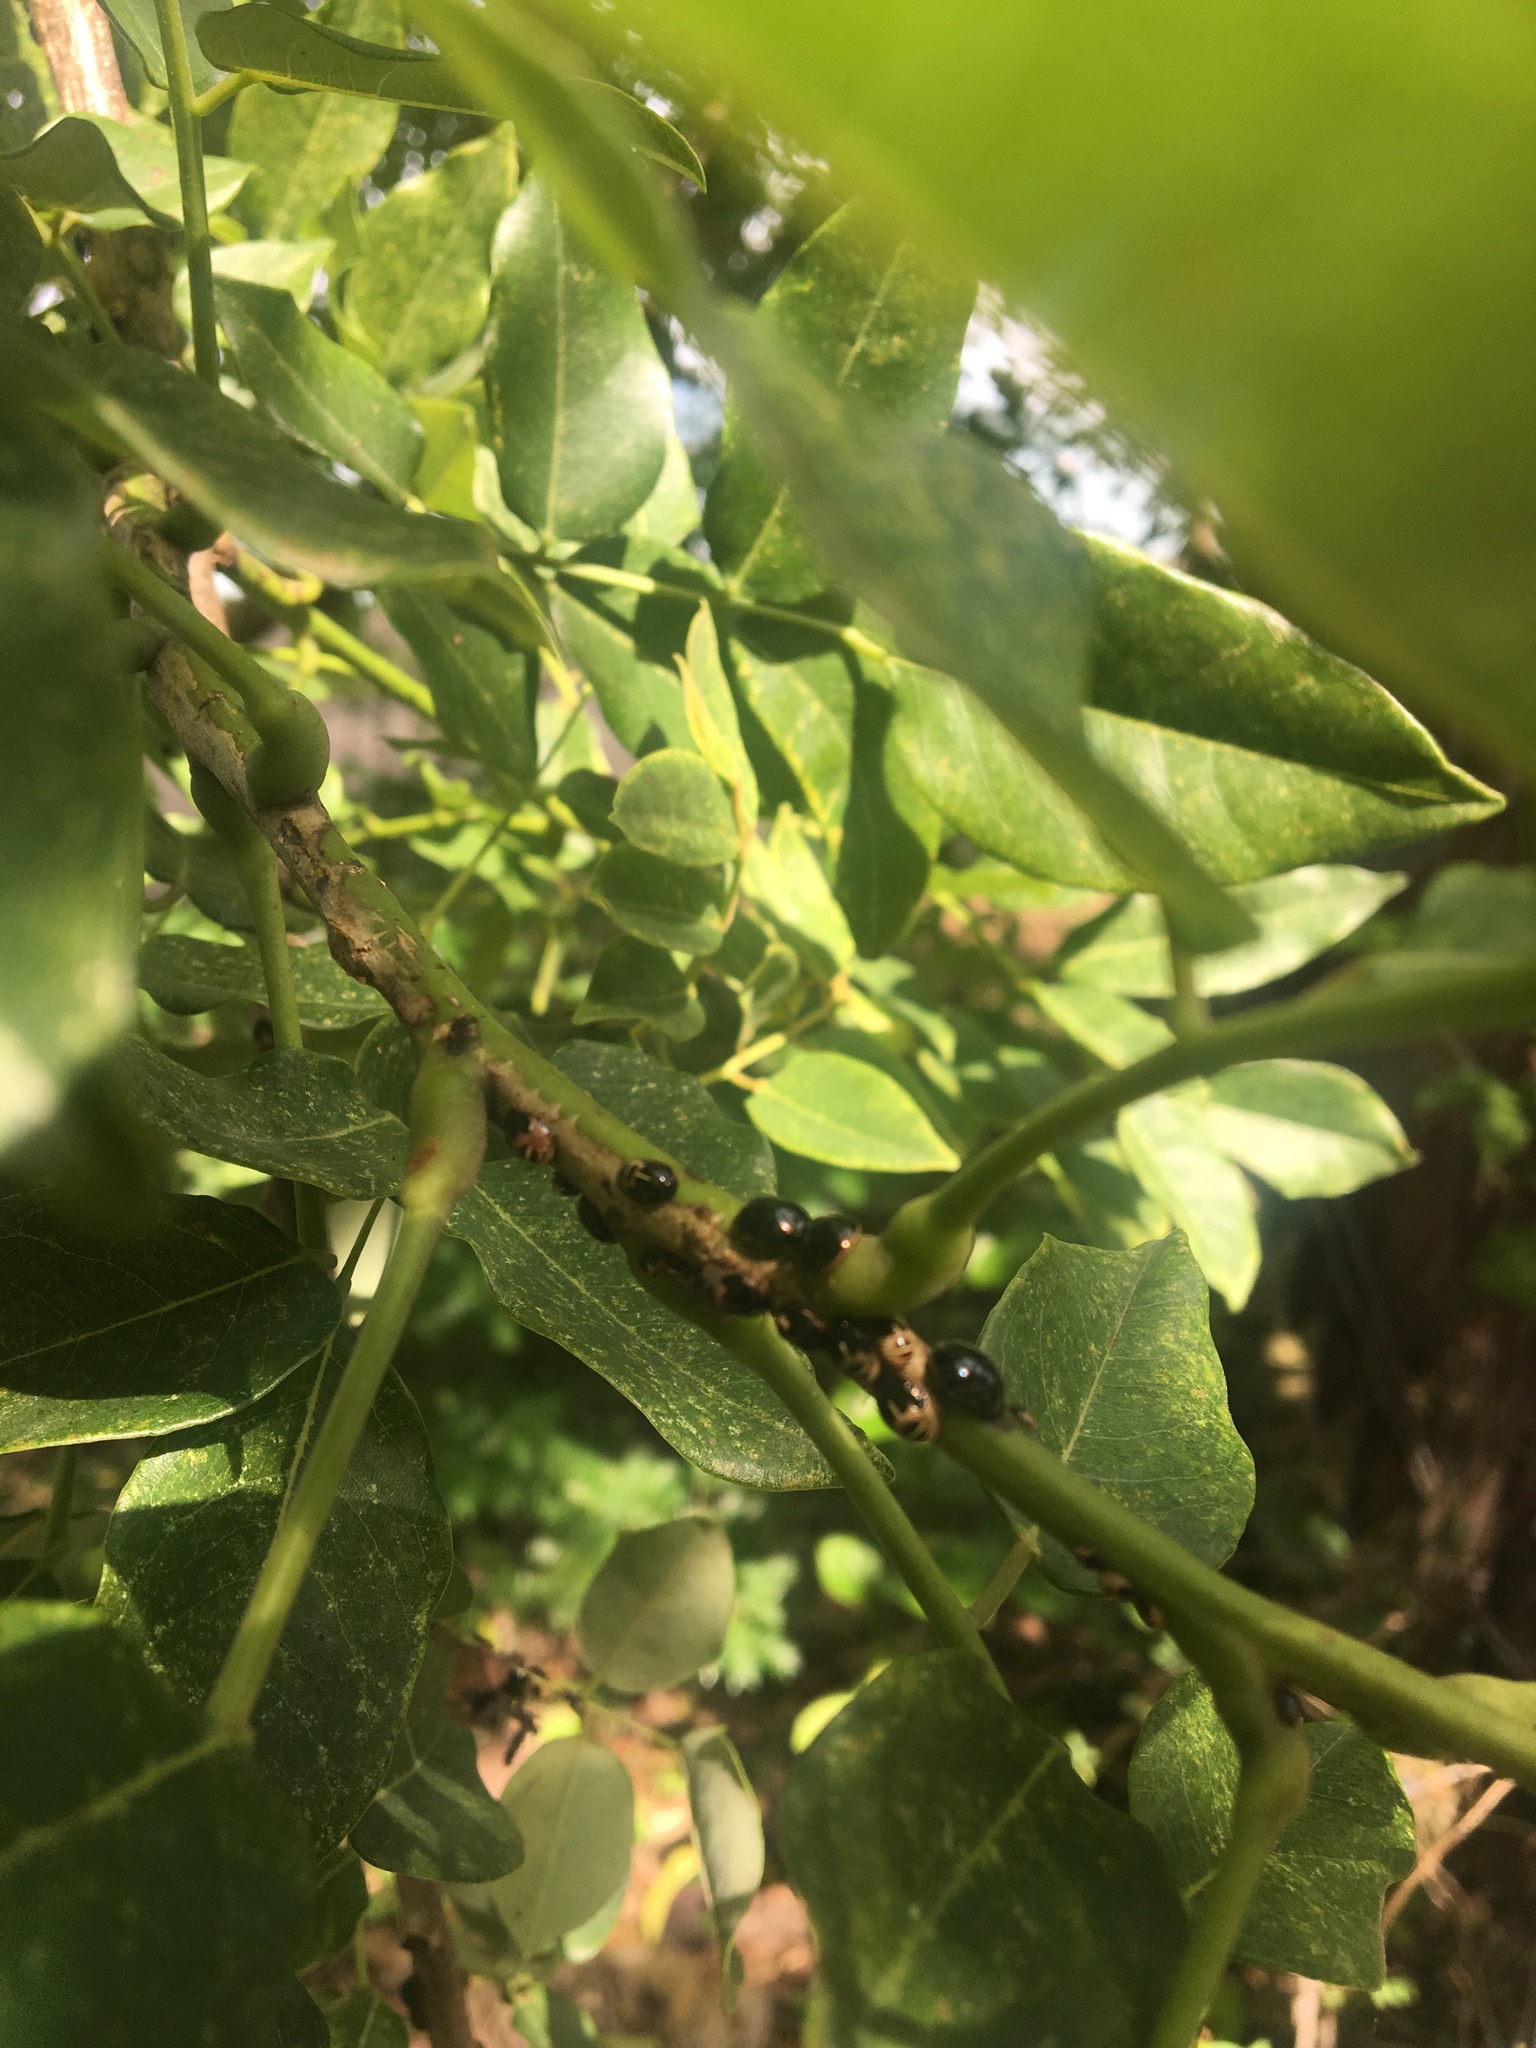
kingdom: Animalia
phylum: Arthropoda
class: Insecta
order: Hemiptera
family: Plataspidae
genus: Brachyplatys
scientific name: Brachyplatys subaeneus
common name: Black bean bug
